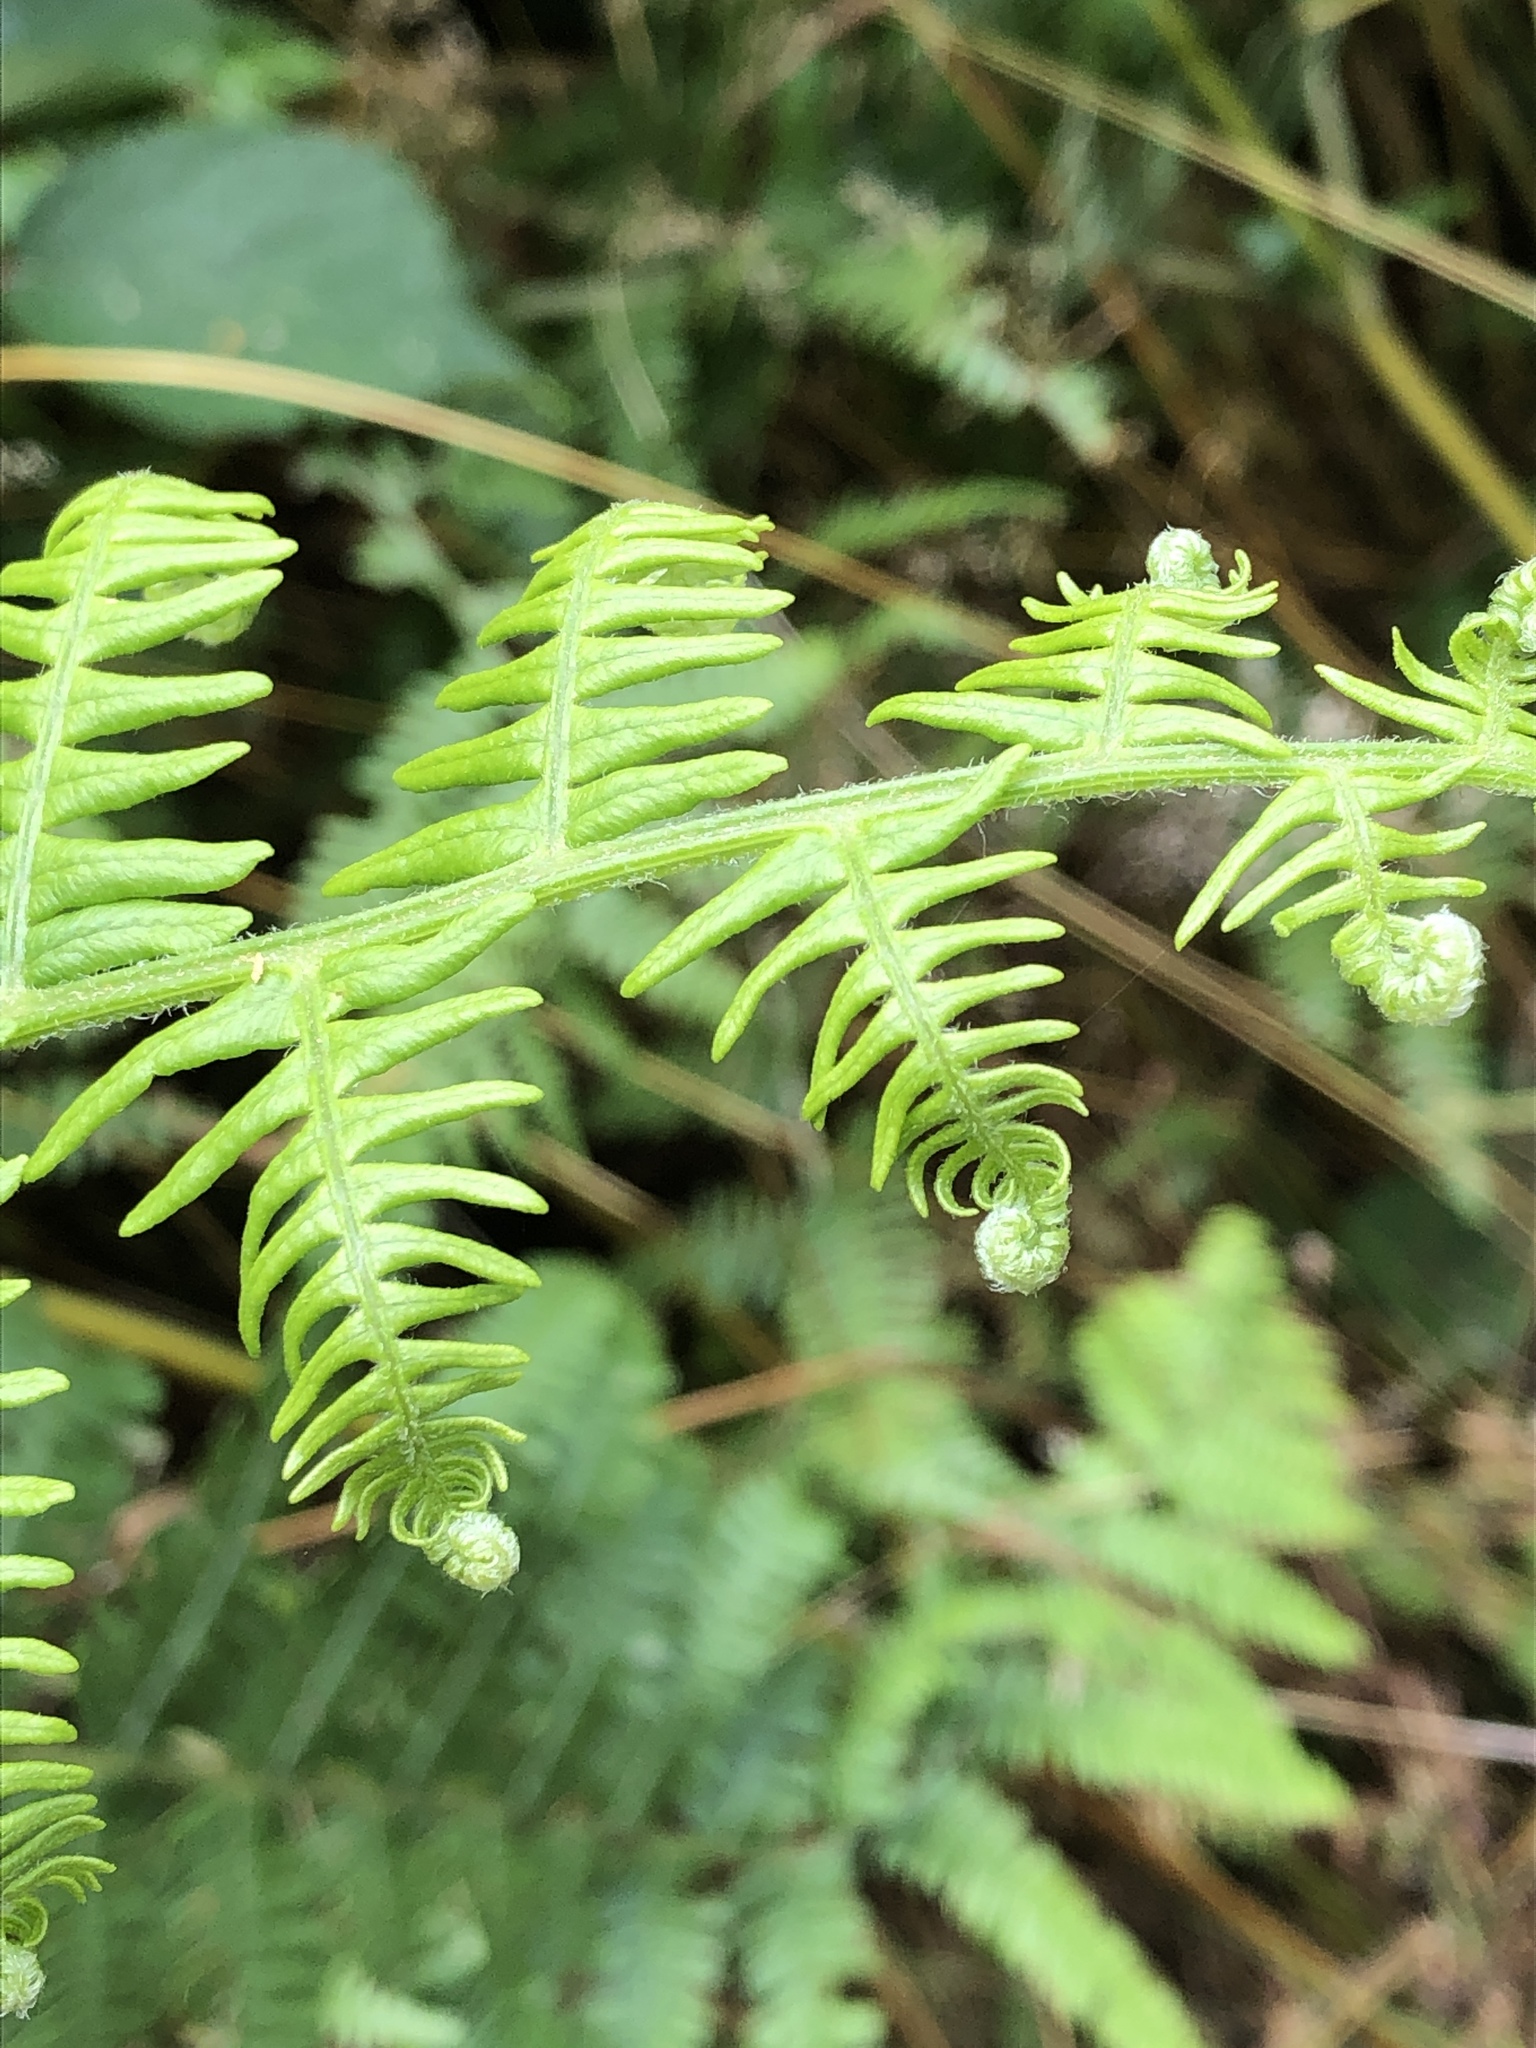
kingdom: Plantae
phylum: Tracheophyta
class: Polypodiopsida
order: Polypodiales
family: Dennstaedtiaceae
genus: Pteridium
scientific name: Pteridium aquilinum
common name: Bracken
